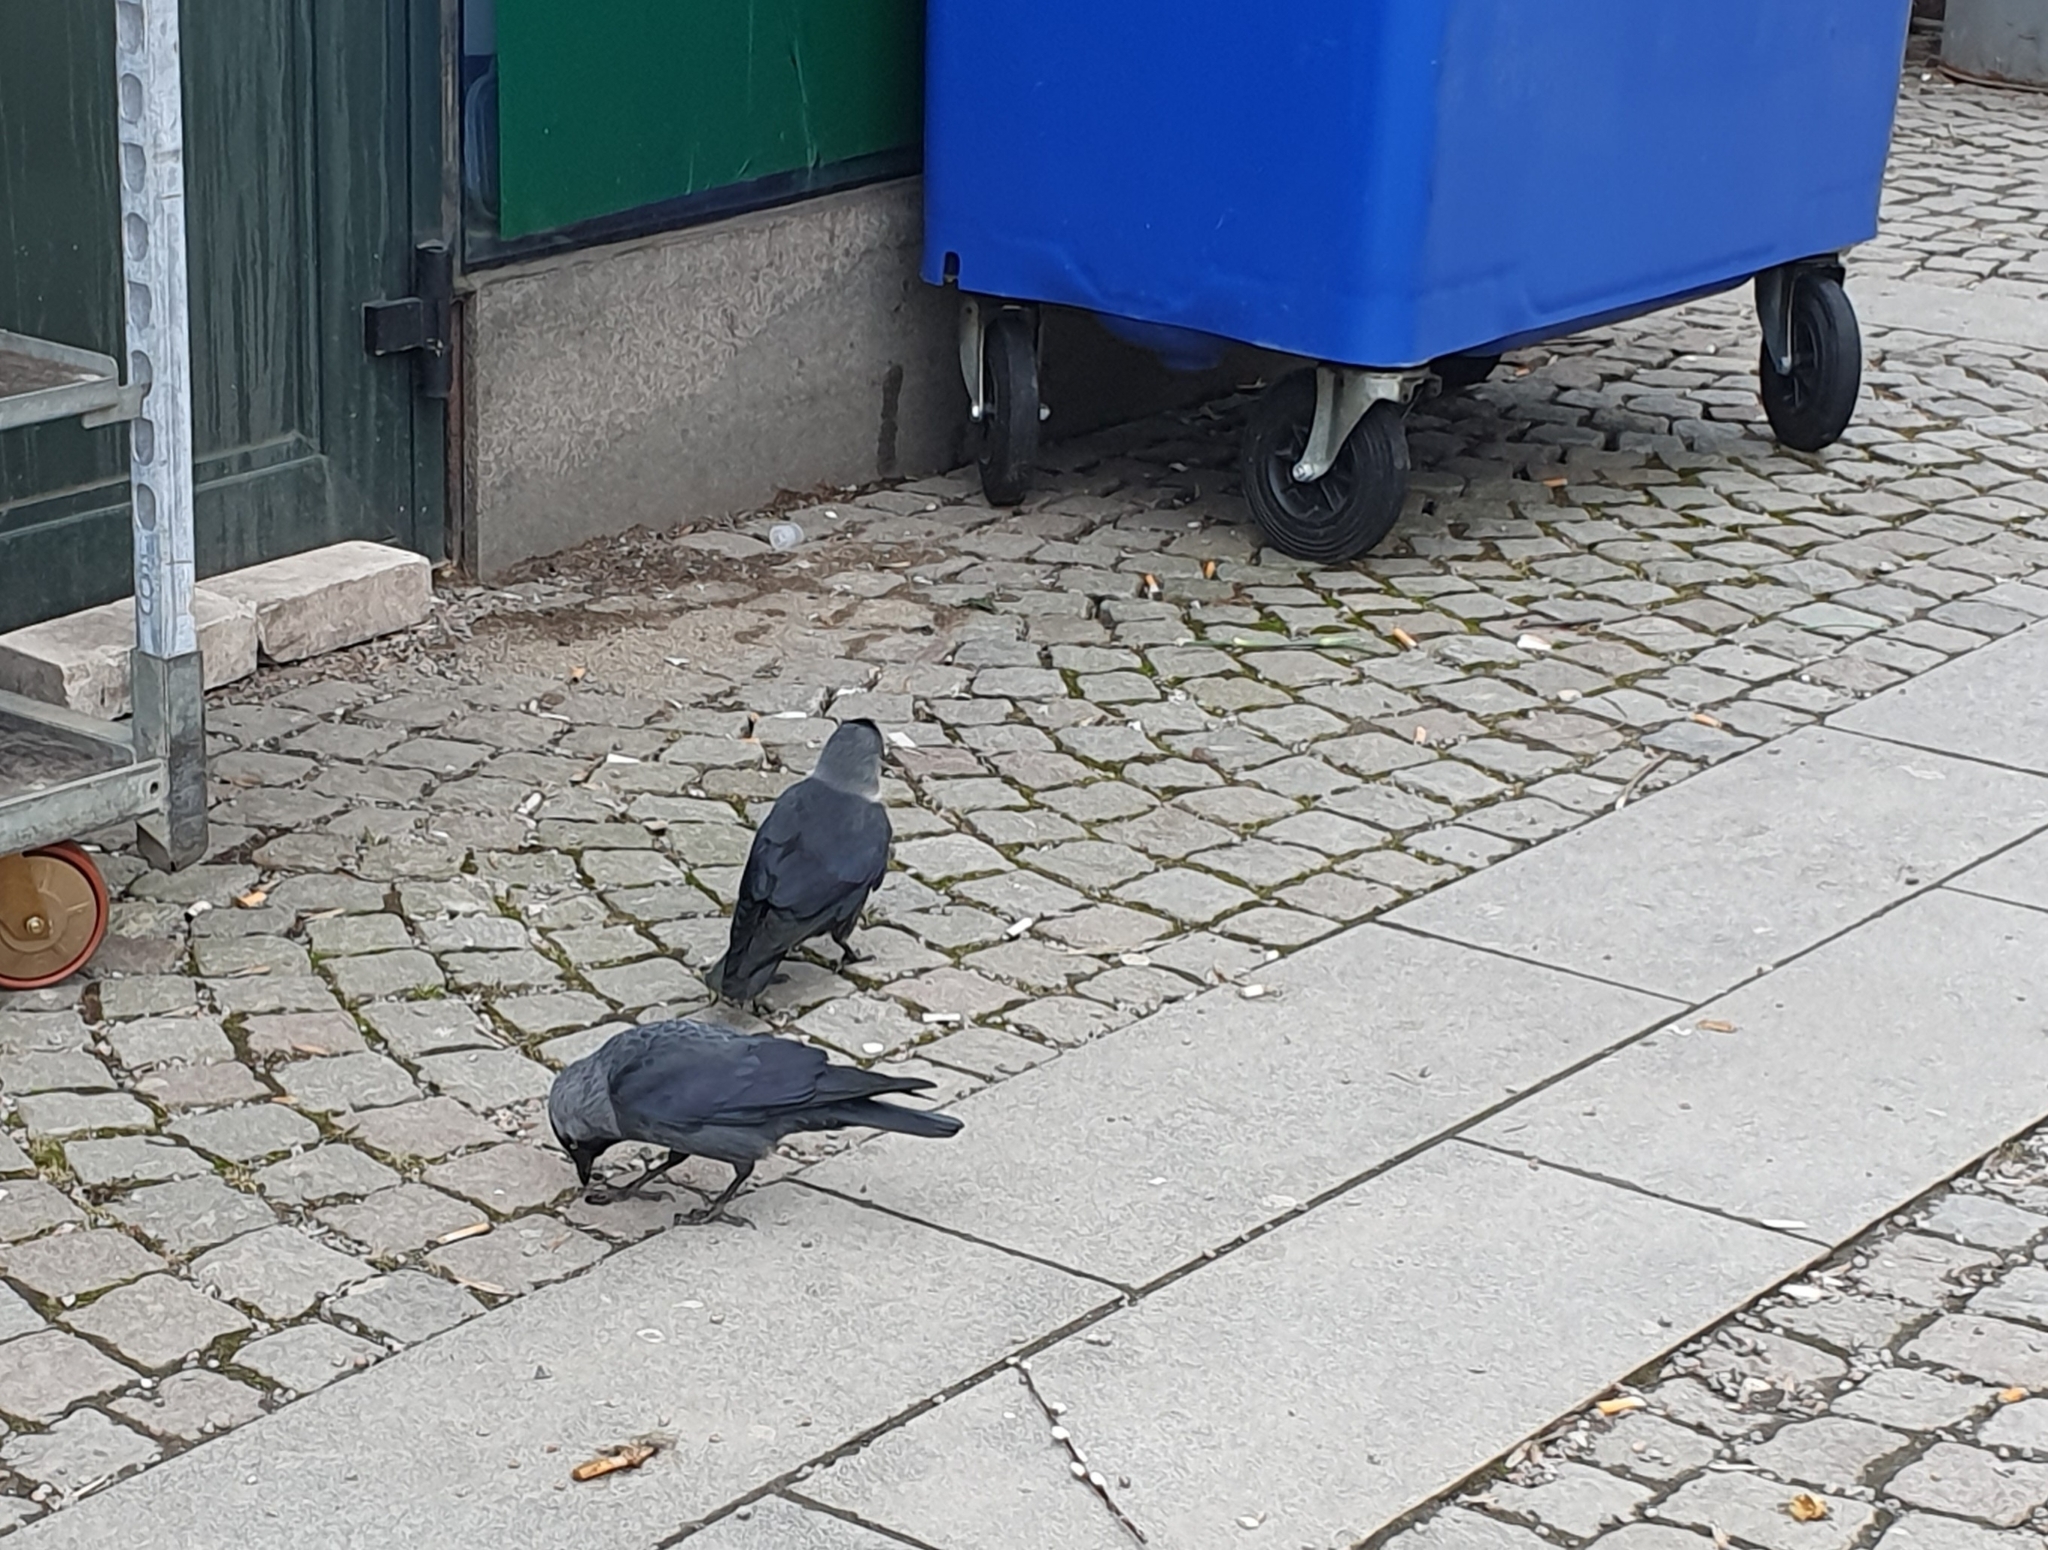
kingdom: Animalia
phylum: Chordata
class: Aves
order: Passeriformes
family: Corvidae
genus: Coloeus
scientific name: Coloeus monedula
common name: Western jackdaw
